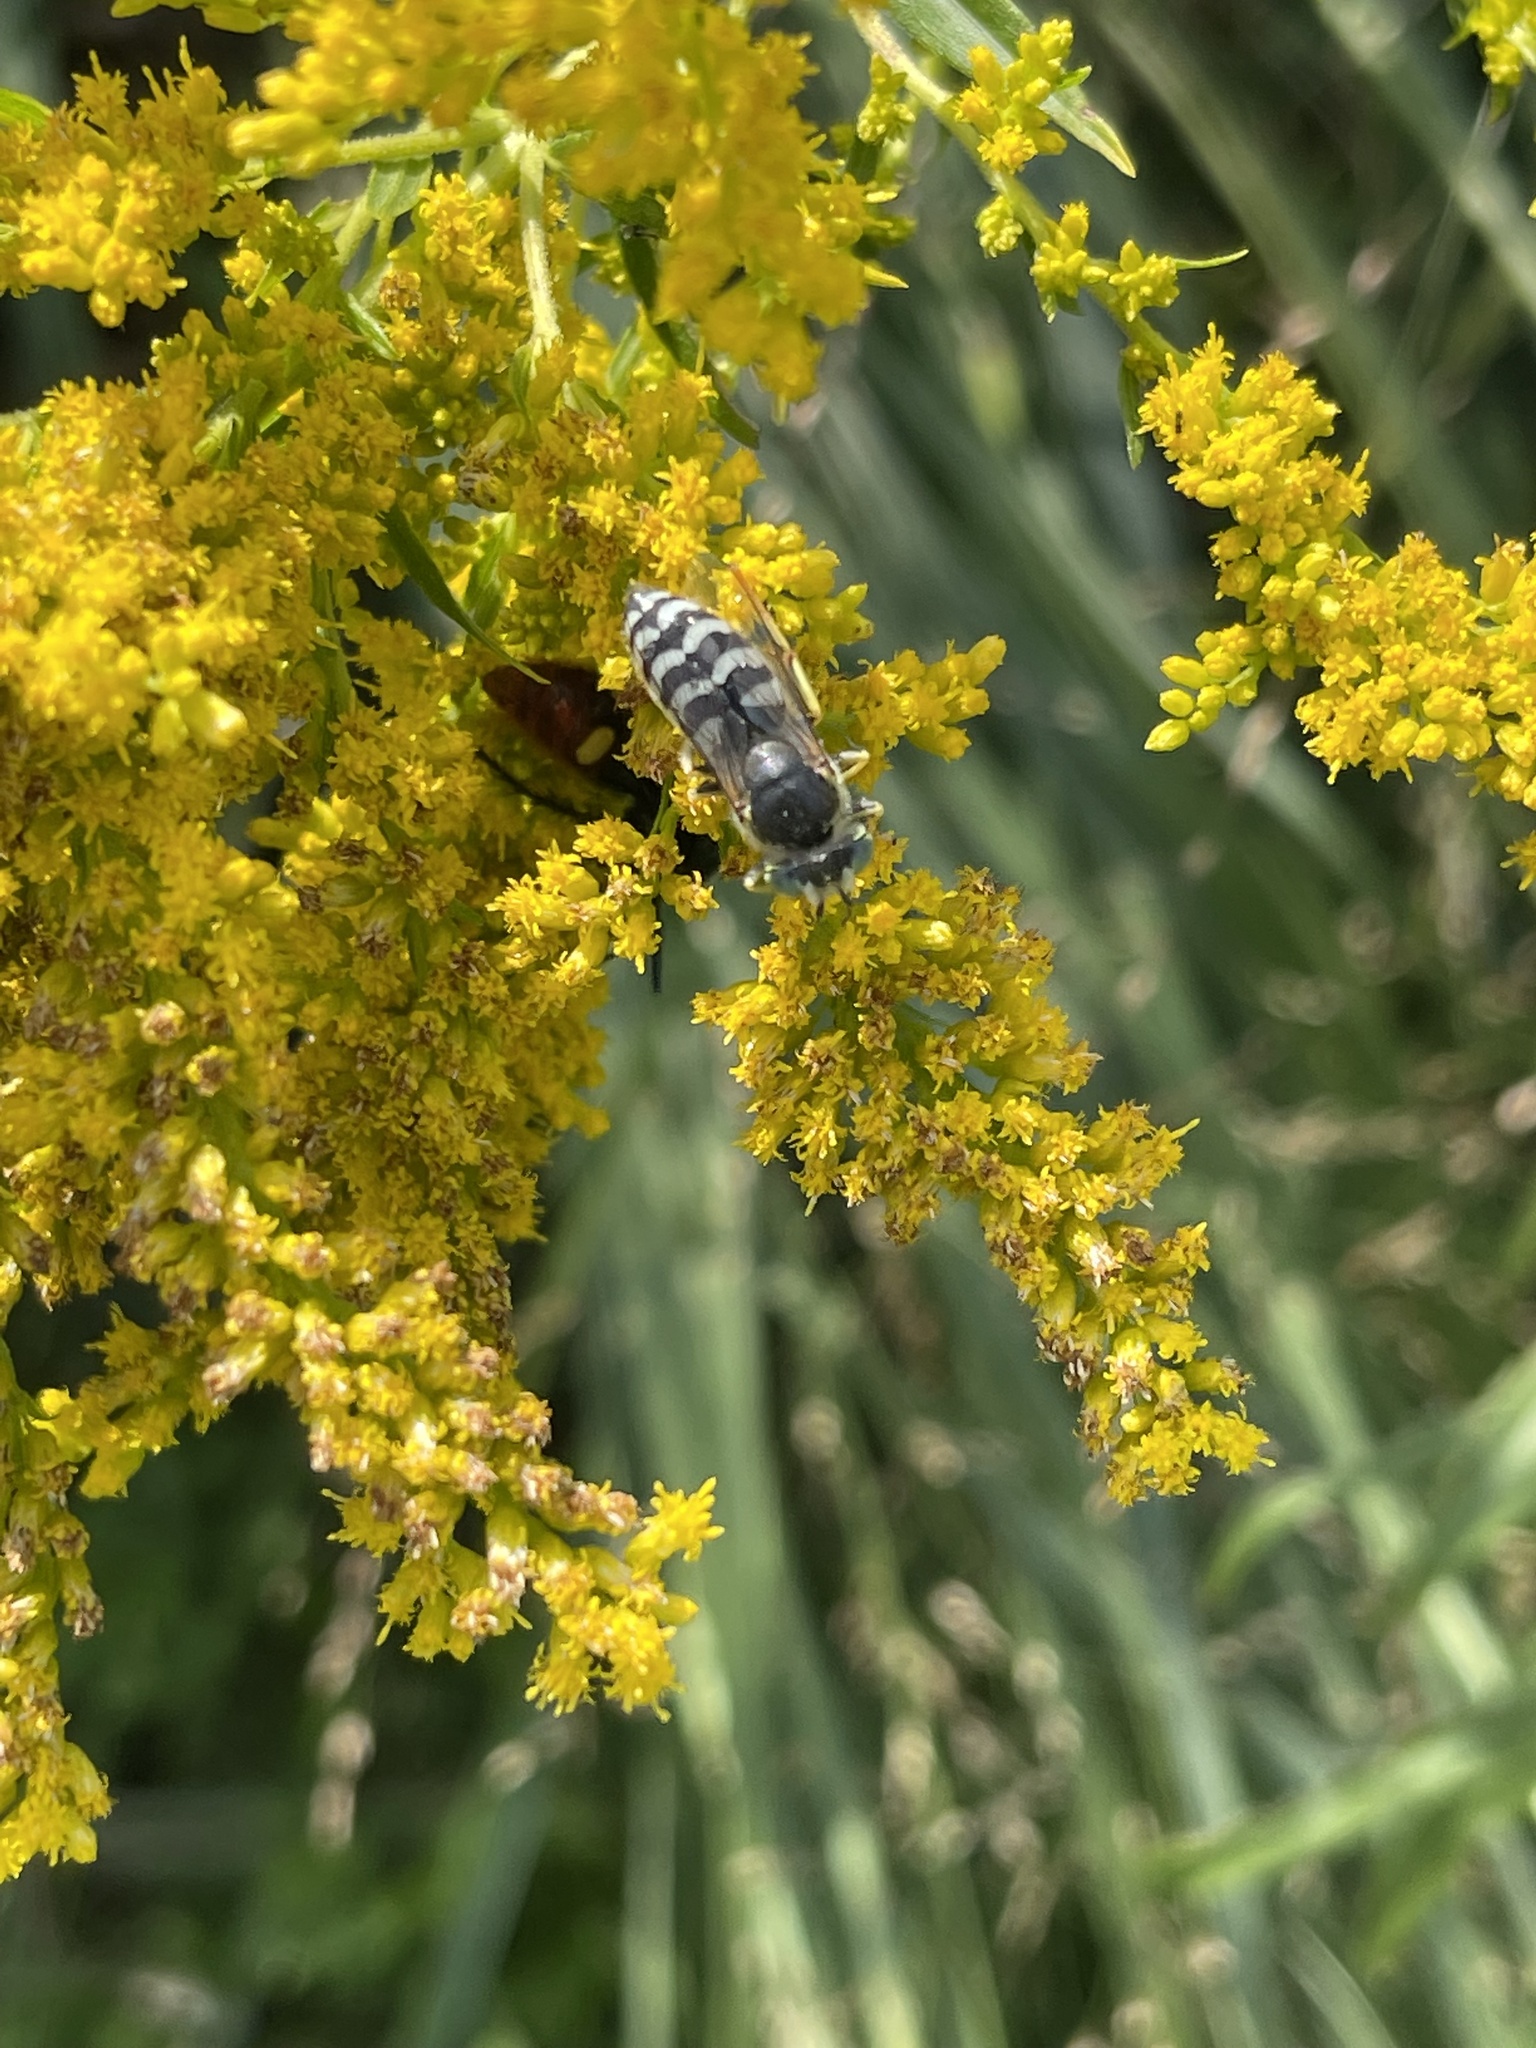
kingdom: Animalia
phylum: Arthropoda
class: Insecta
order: Hymenoptera
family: Crabronidae
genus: Bembix
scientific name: Bembix americana
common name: American sand wasp
